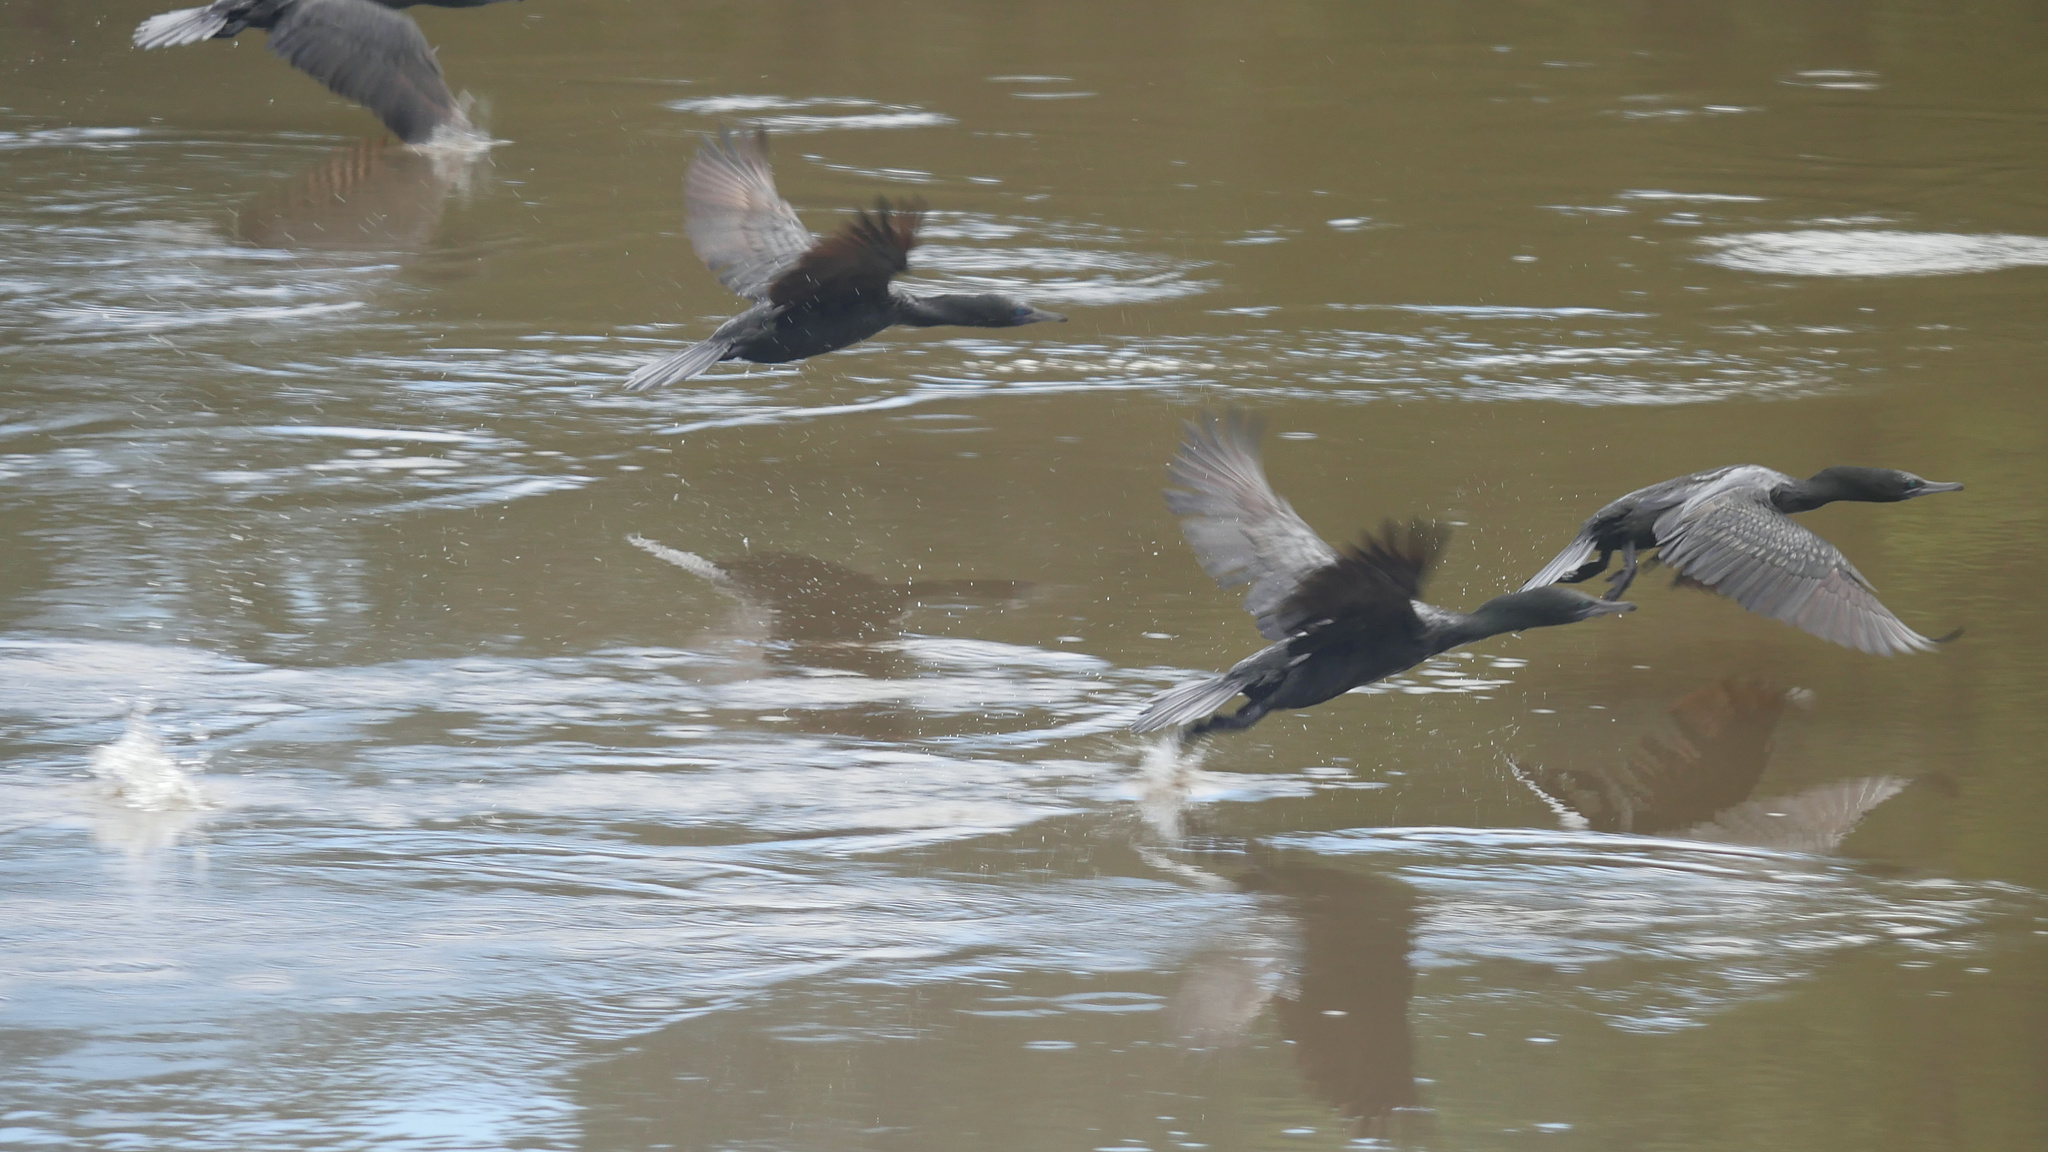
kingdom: Animalia
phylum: Chordata
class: Aves
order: Suliformes
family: Phalacrocoracidae
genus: Phalacrocorax
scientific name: Phalacrocorax sulcirostris
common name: Little black cormorant
